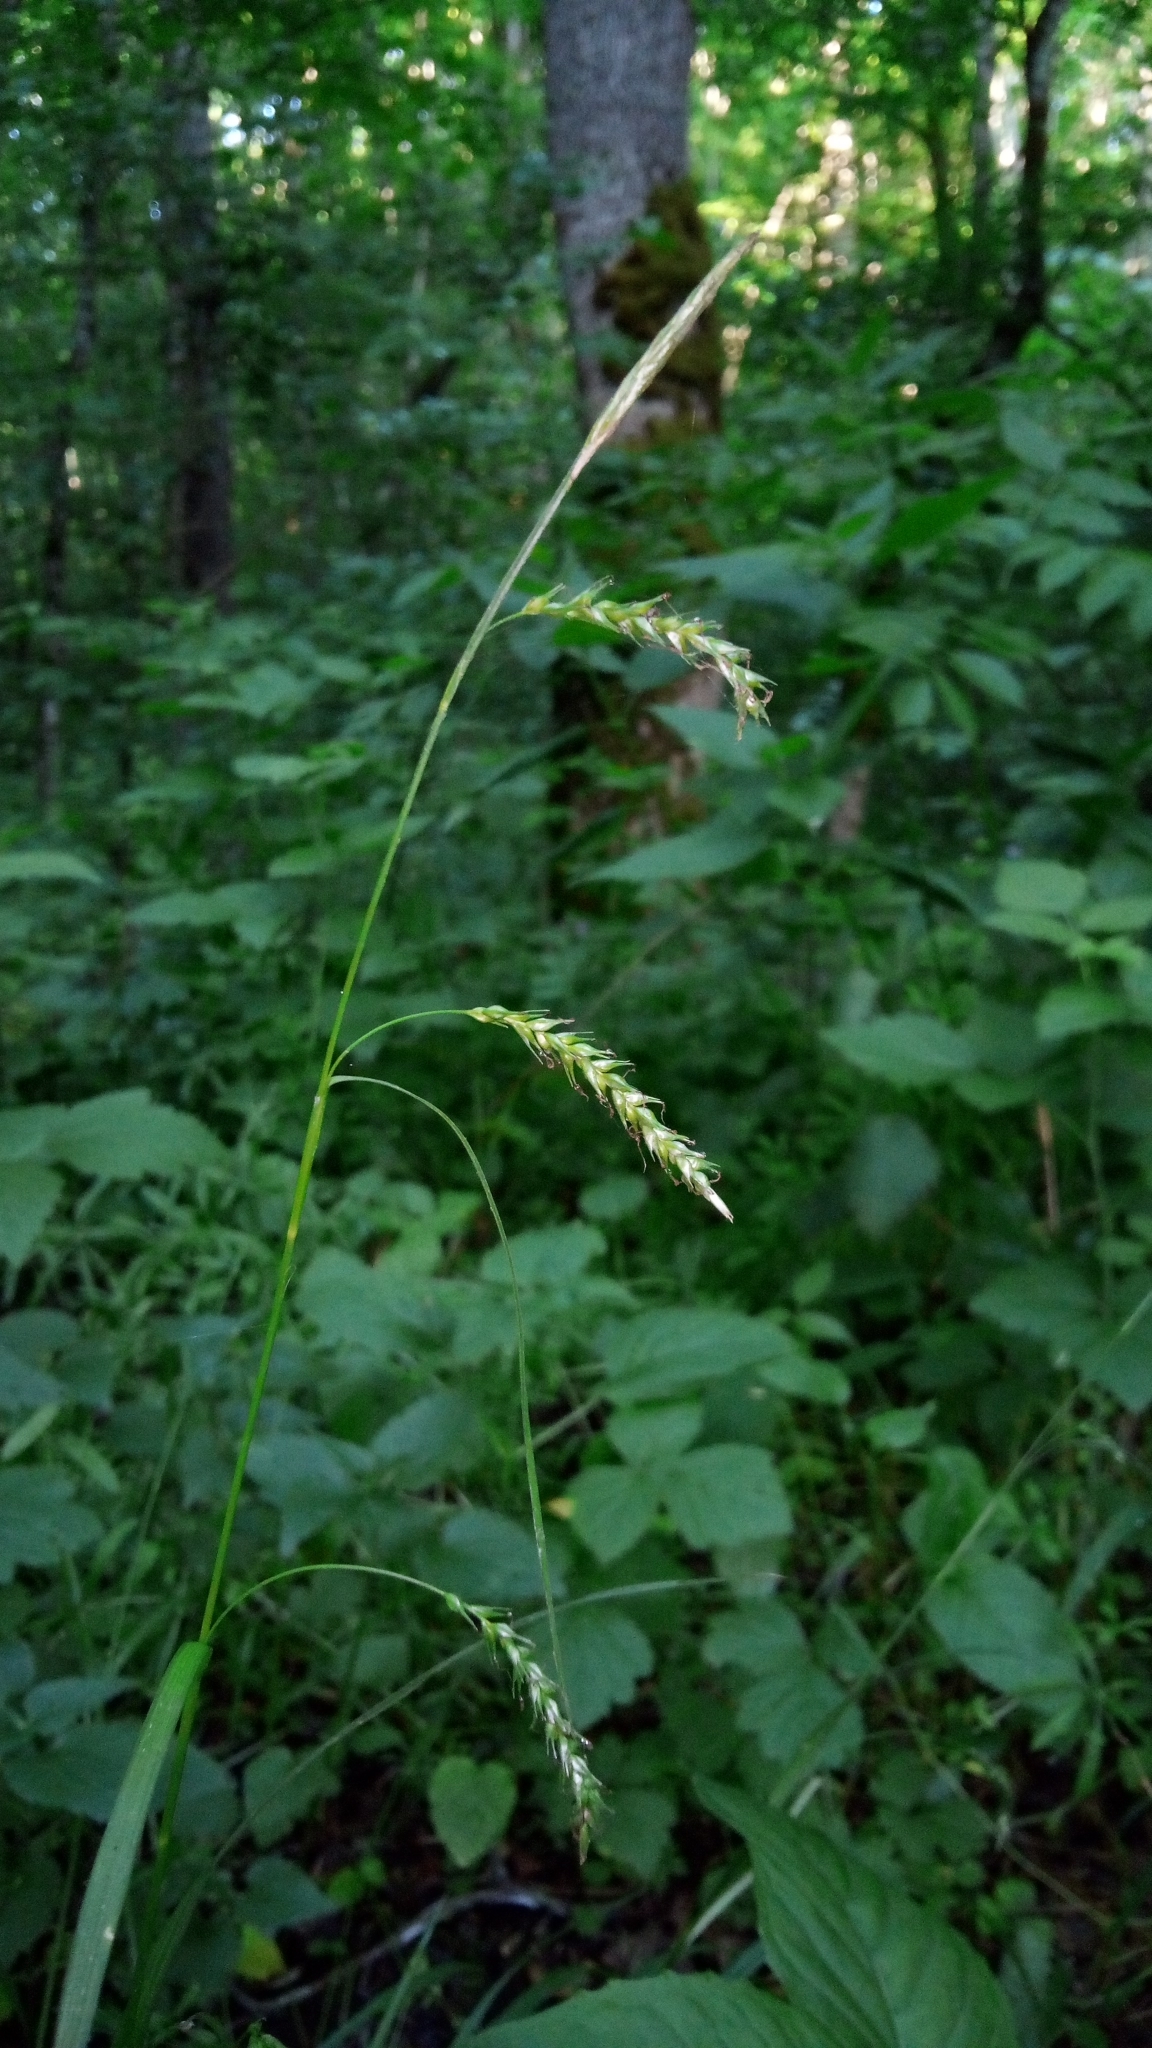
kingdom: Plantae
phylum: Tracheophyta
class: Liliopsida
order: Poales
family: Cyperaceae
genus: Carex
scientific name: Carex sylvatica
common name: Wood-sedge
